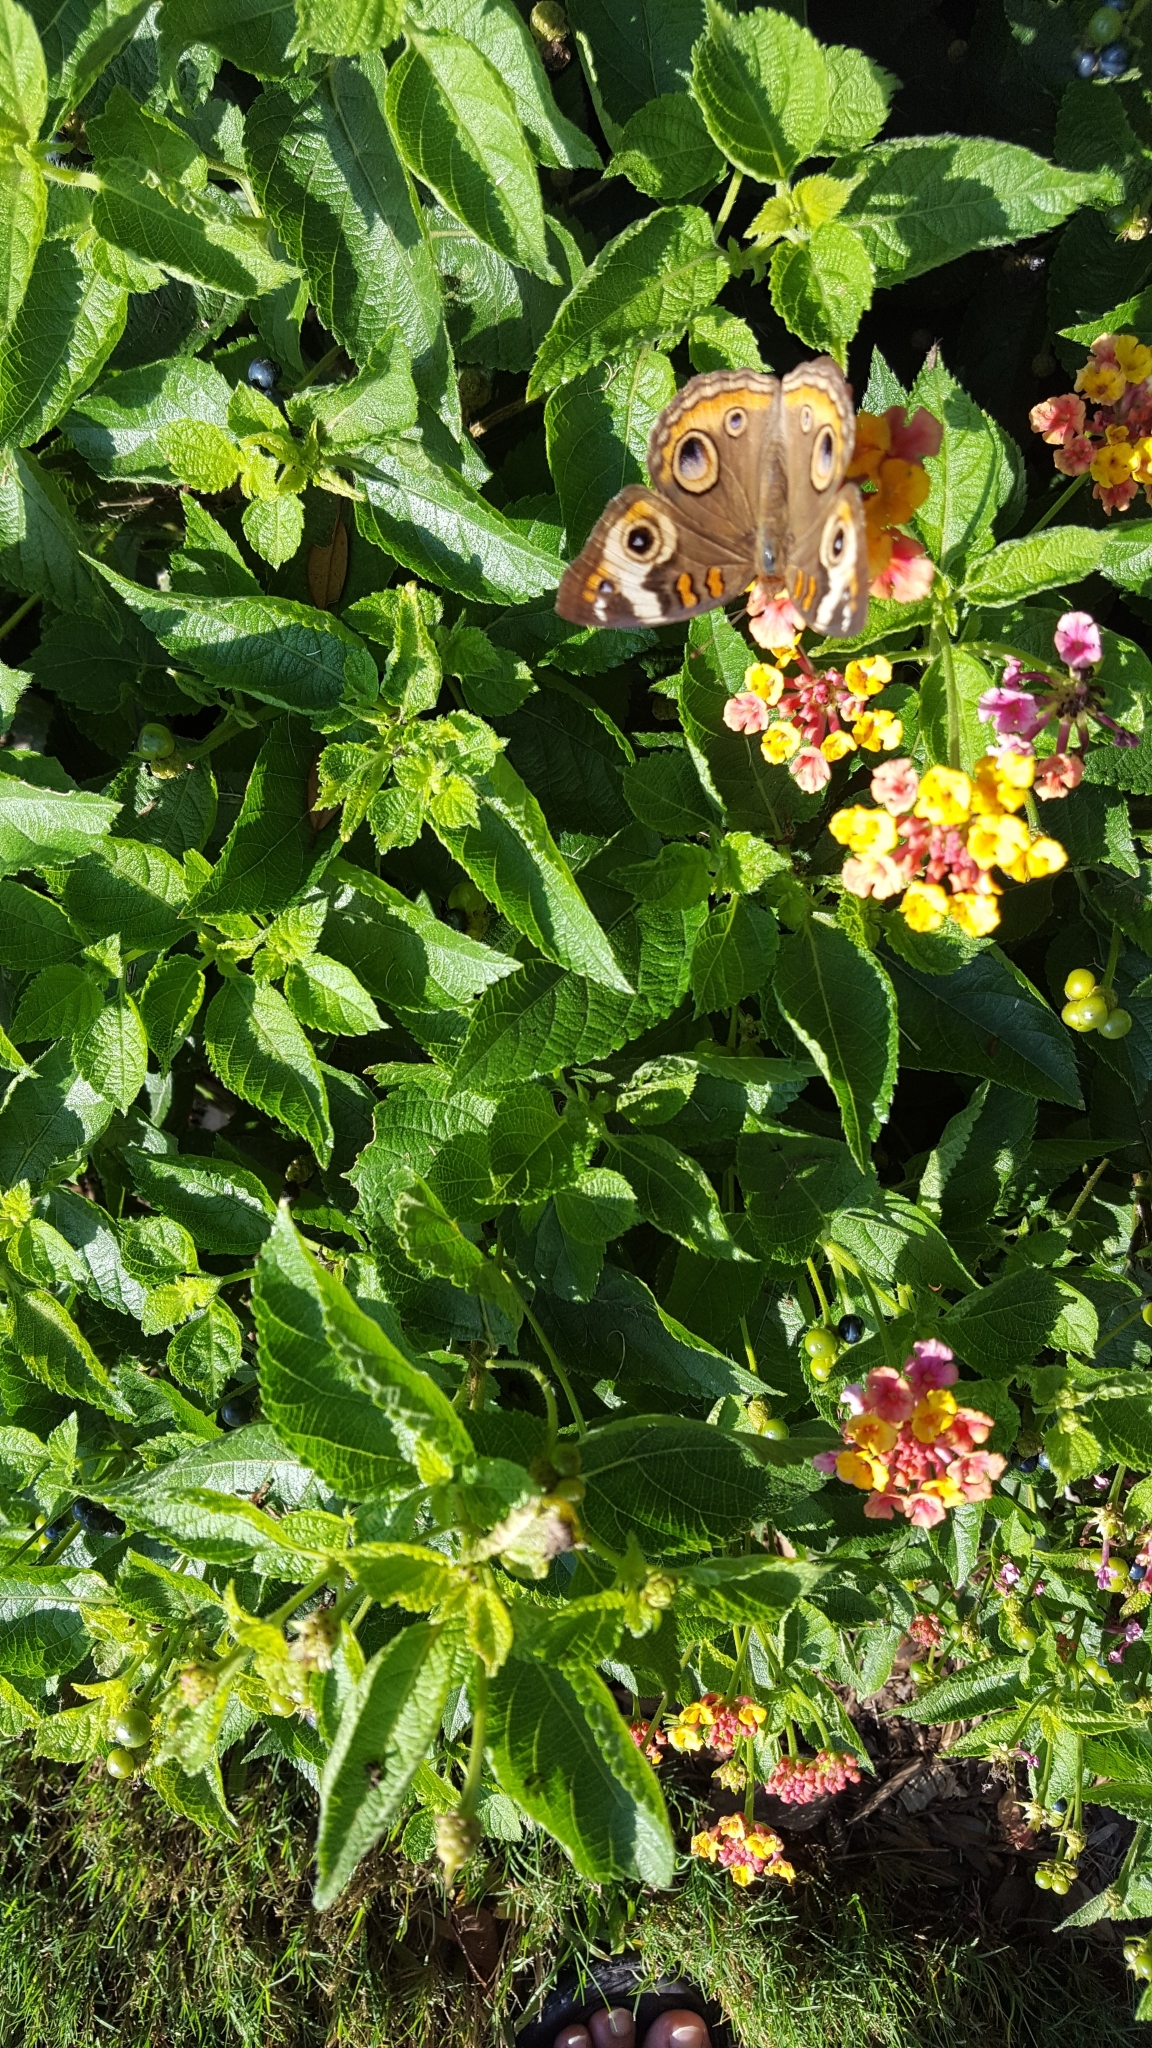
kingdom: Animalia
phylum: Arthropoda
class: Insecta
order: Lepidoptera
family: Nymphalidae
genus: Junonia
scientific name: Junonia coenia
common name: Common buckeye
